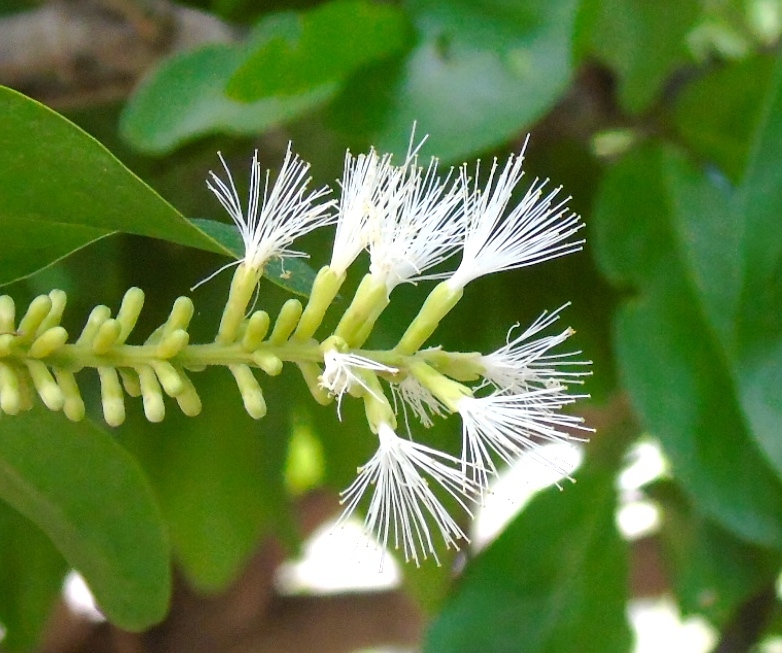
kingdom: Plantae
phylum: Tracheophyta
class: Magnoliopsida
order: Fabales
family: Fabaceae
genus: Pithecellobium
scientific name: Pithecellobium lanceolatum
